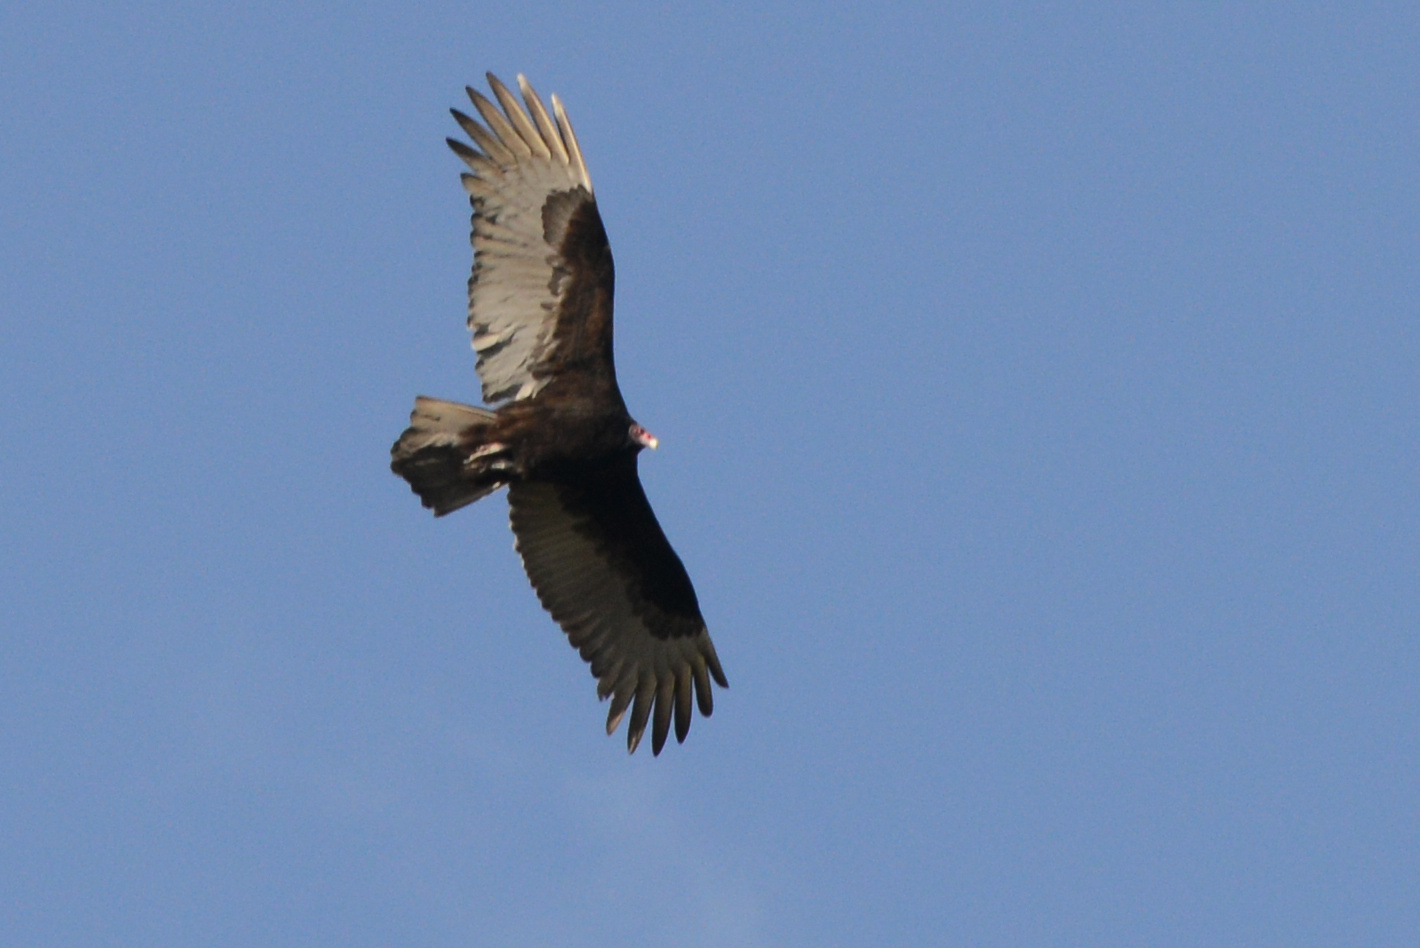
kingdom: Animalia
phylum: Chordata
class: Aves
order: Accipitriformes
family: Cathartidae
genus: Cathartes
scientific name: Cathartes aura
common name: Turkey vulture
